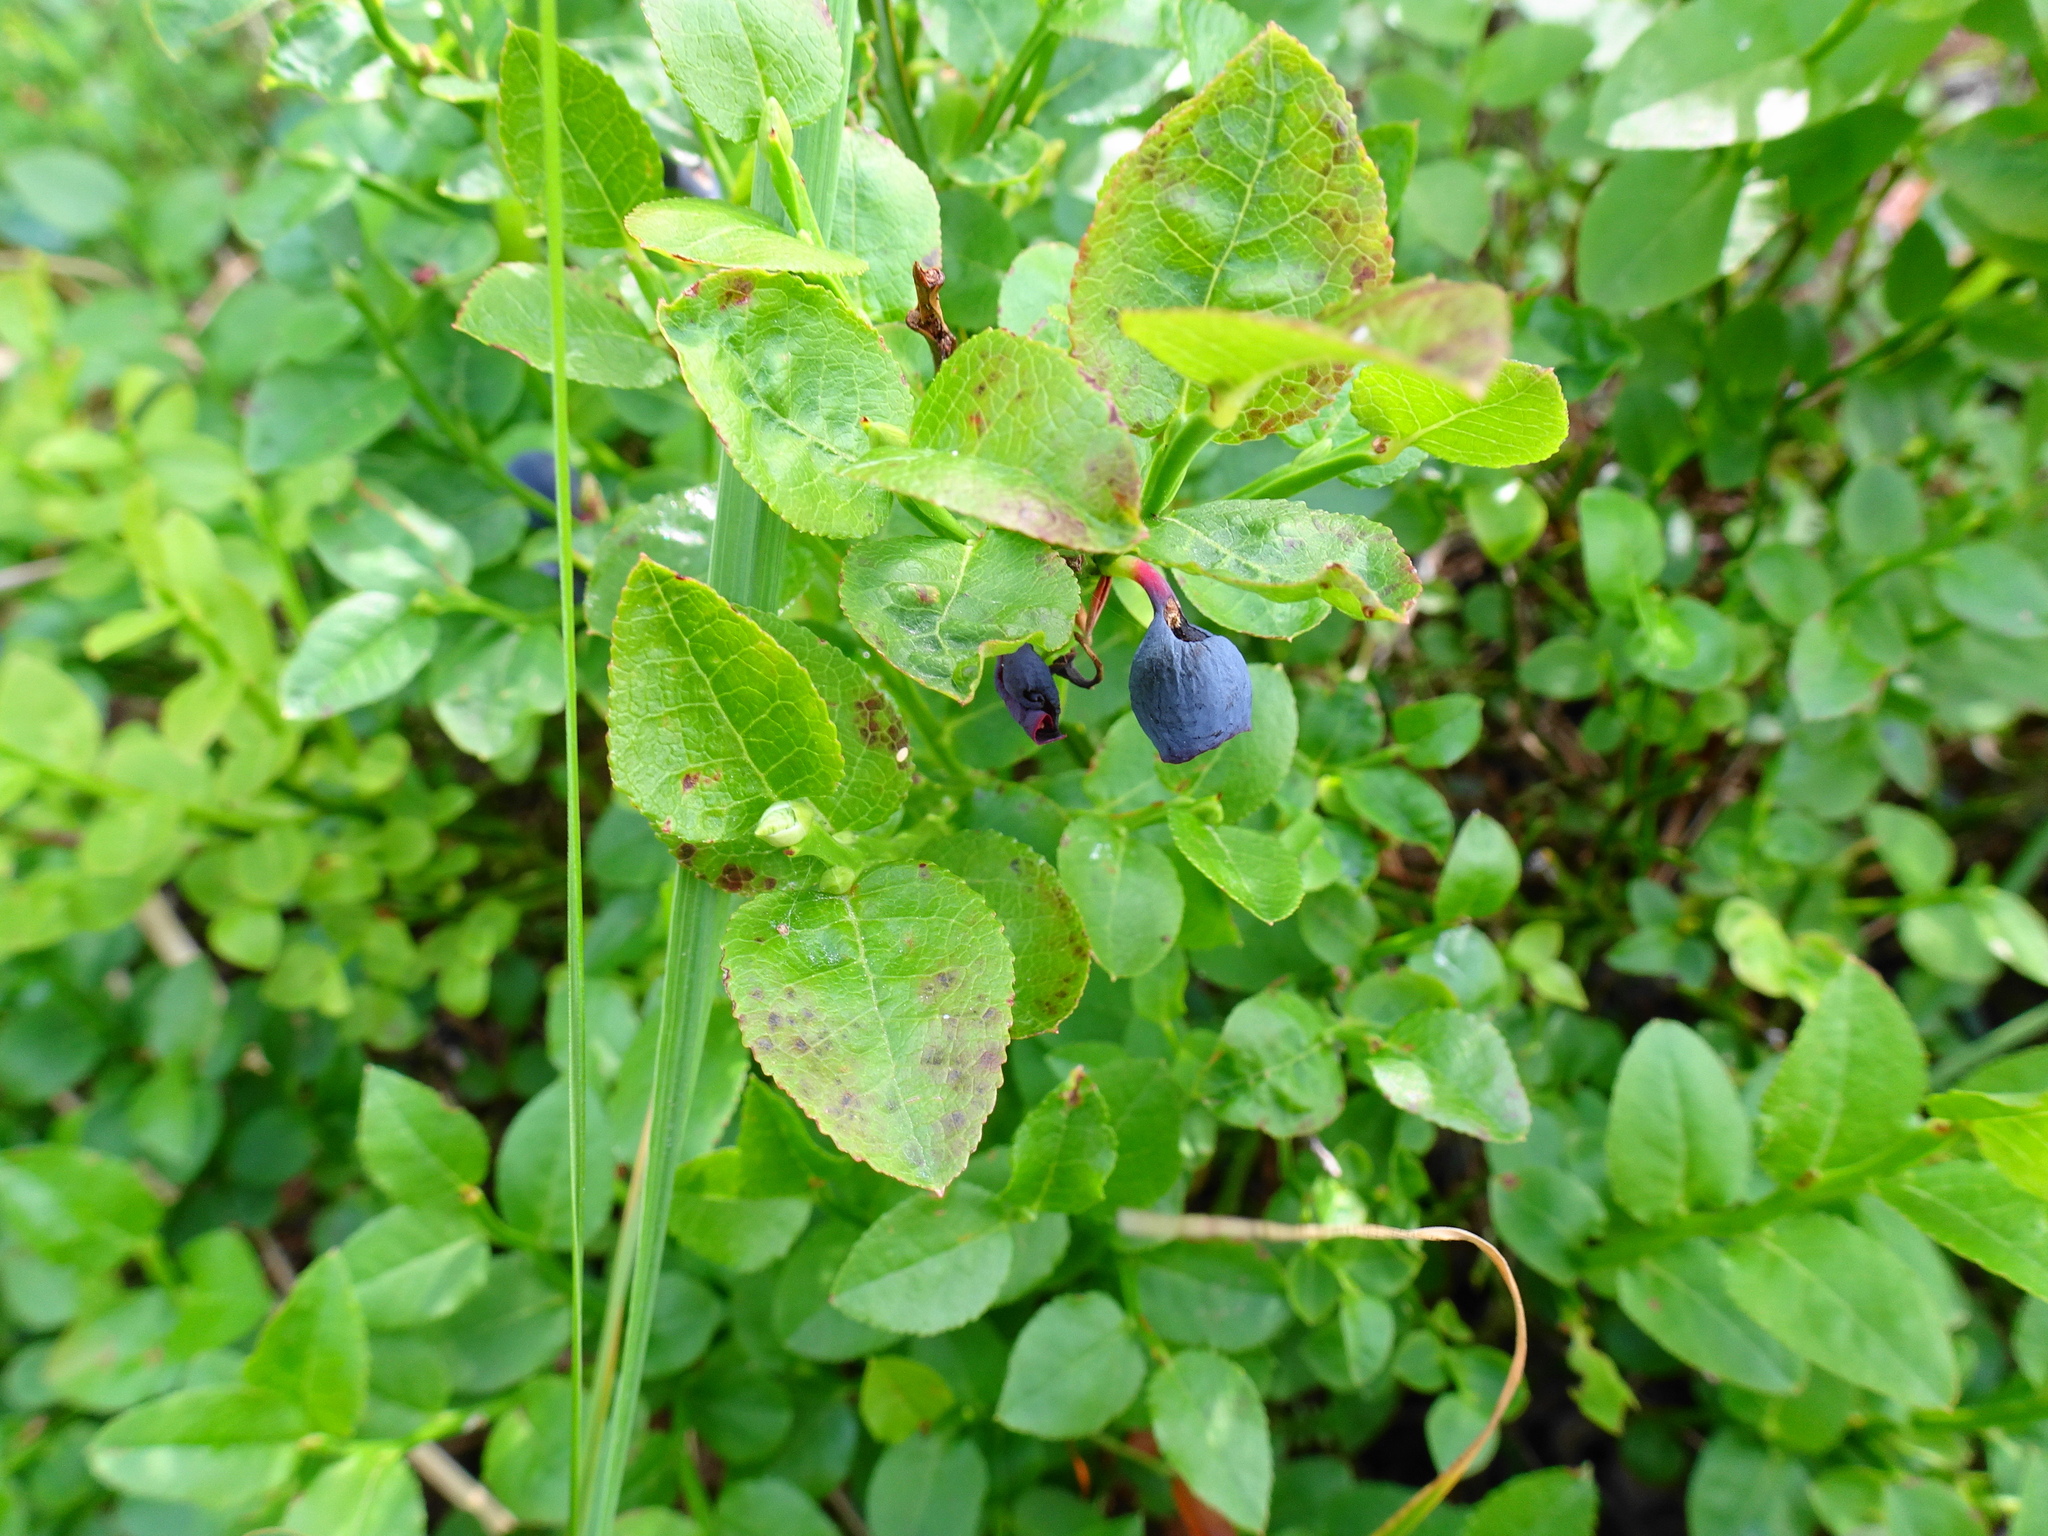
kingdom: Plantae
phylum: Tracheophyta
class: Magnoliopsida
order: Ericales
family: Ericaceae
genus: Vaccinium
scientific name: Vaccinium myrtillus
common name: Bilberry
